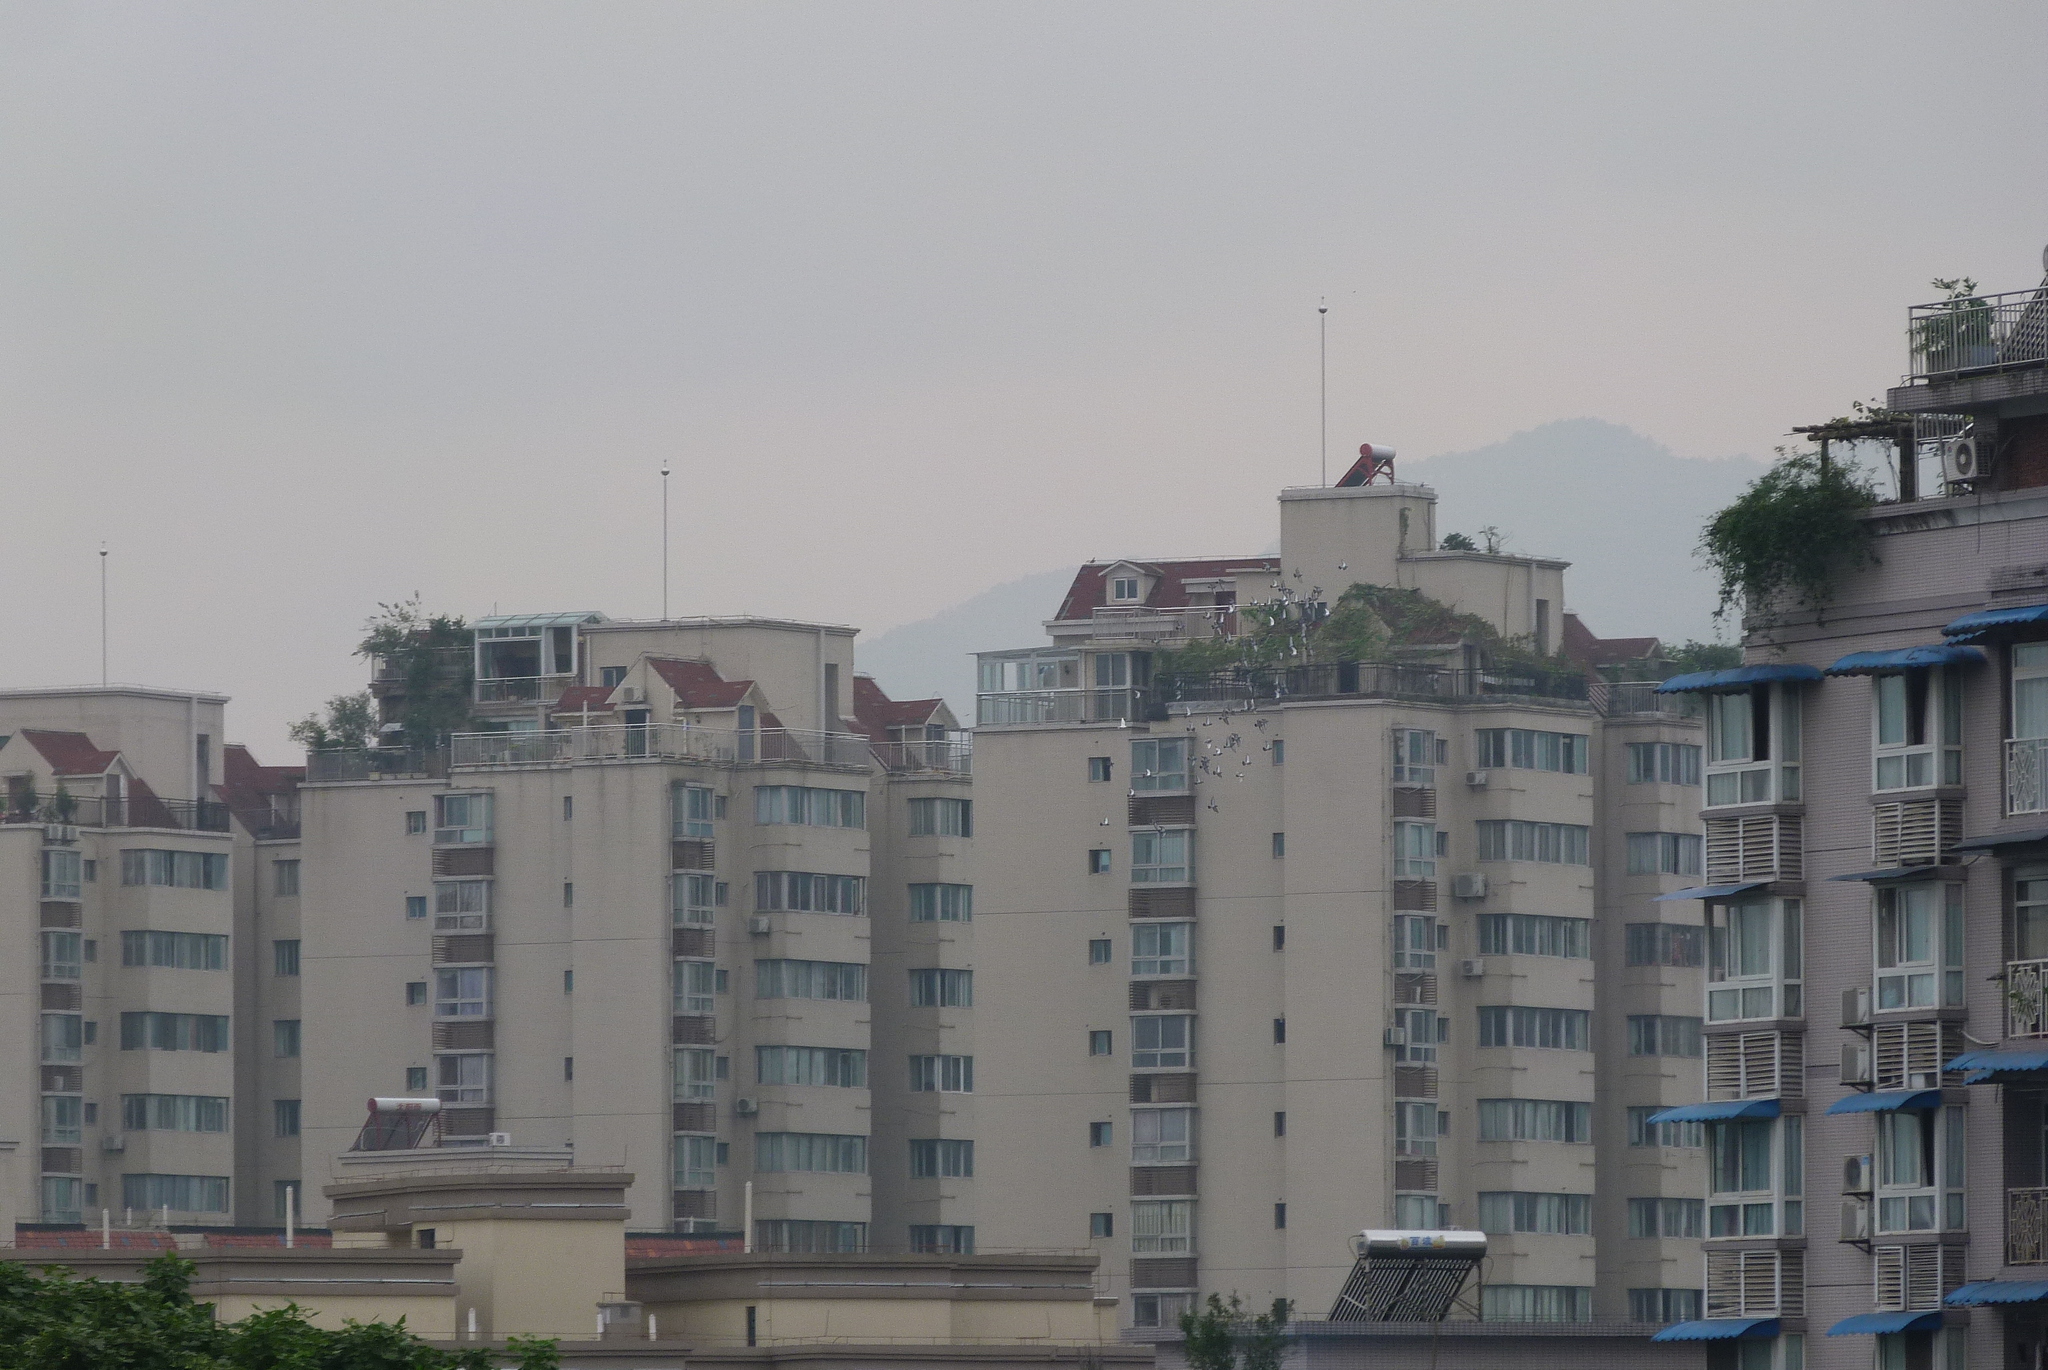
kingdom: Animalia
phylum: Chordata
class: Aves
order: Columbiformes
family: Columbidae
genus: Columba
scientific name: Columba livia
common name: Rock pigeon
